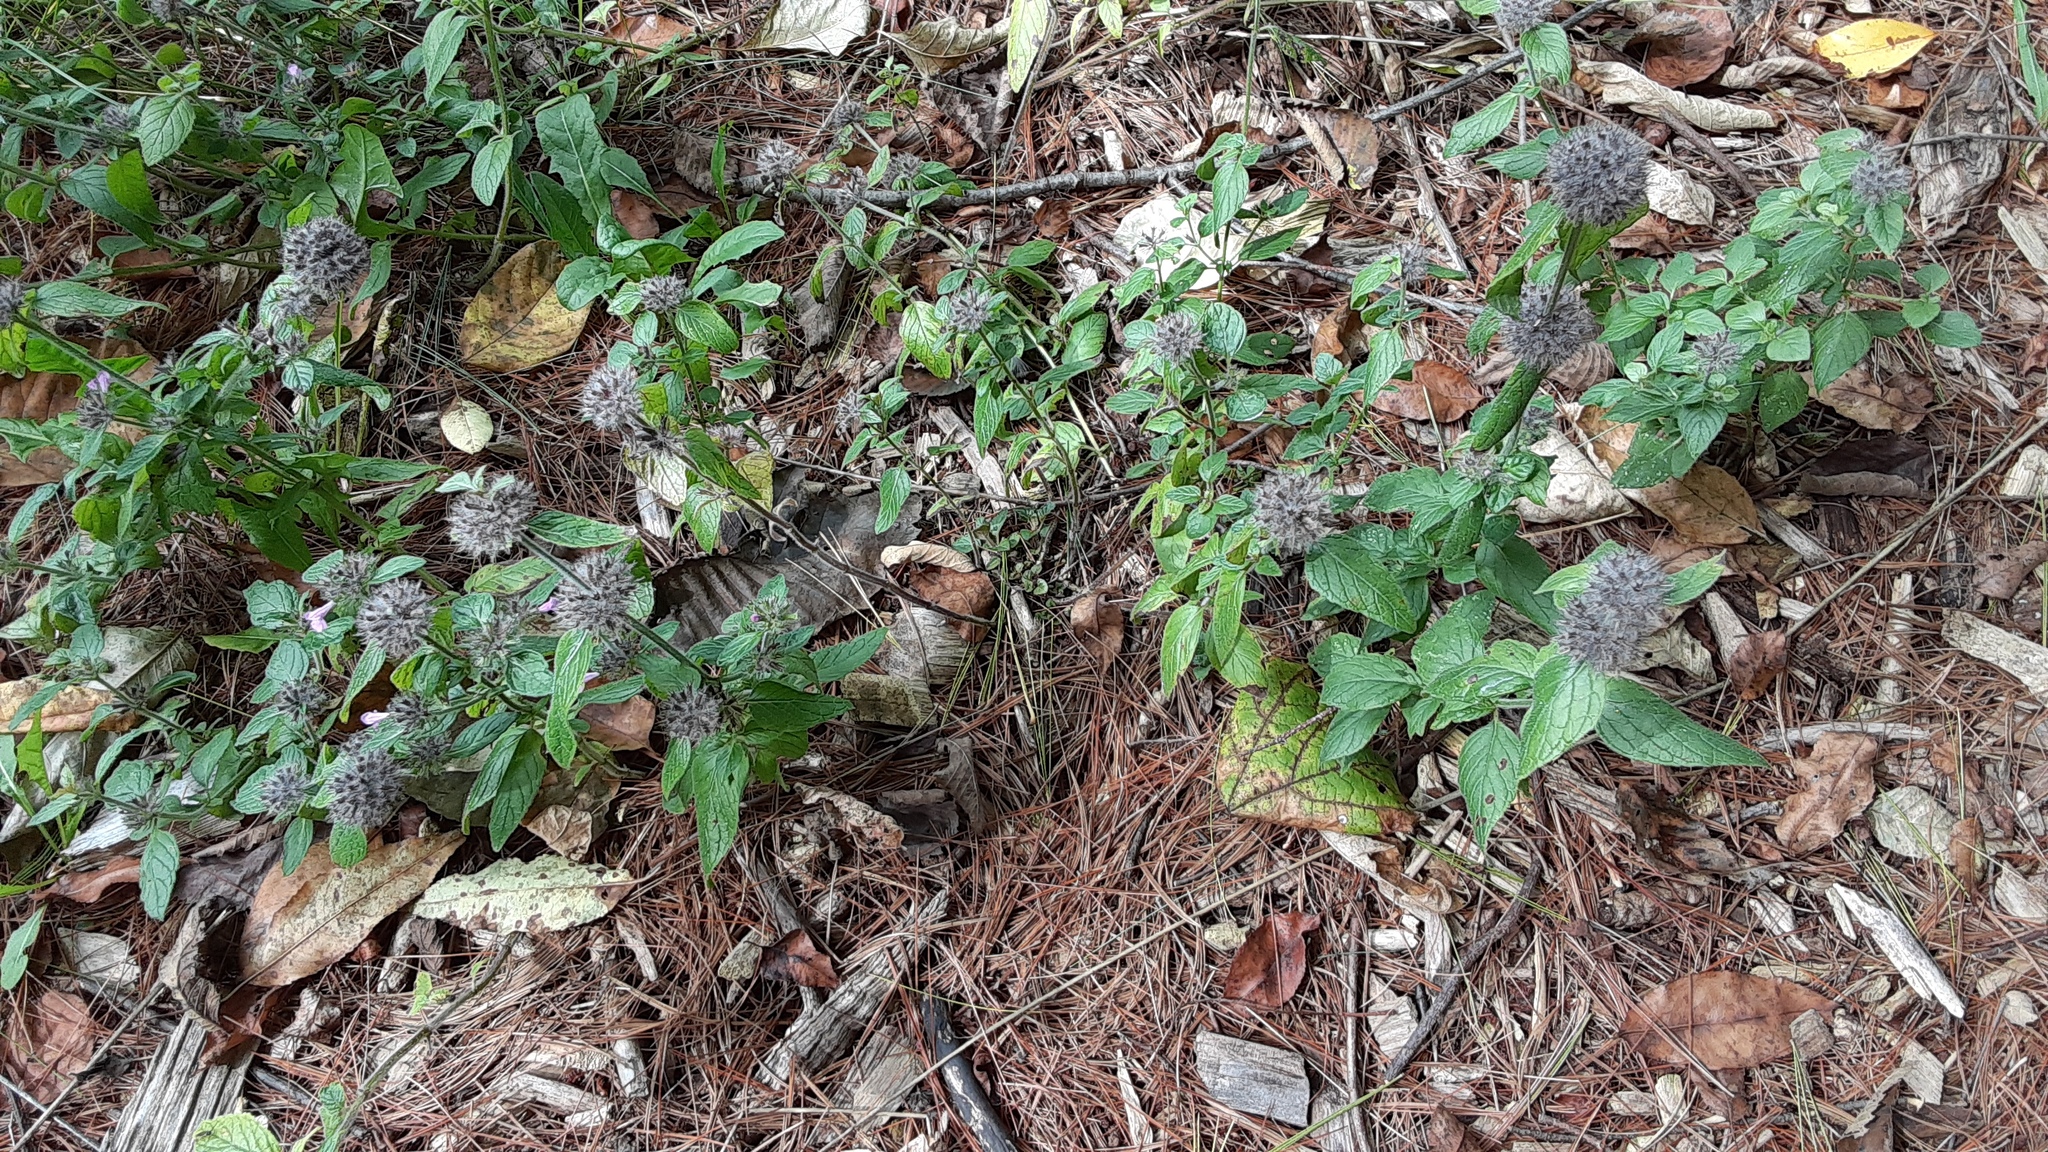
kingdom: Plantae
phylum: Tracheophyta
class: Magnoliopsida
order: Lamiales
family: Lamiaceae
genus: Clinopodium
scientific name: Clinopodium vulgare
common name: Wild basil
